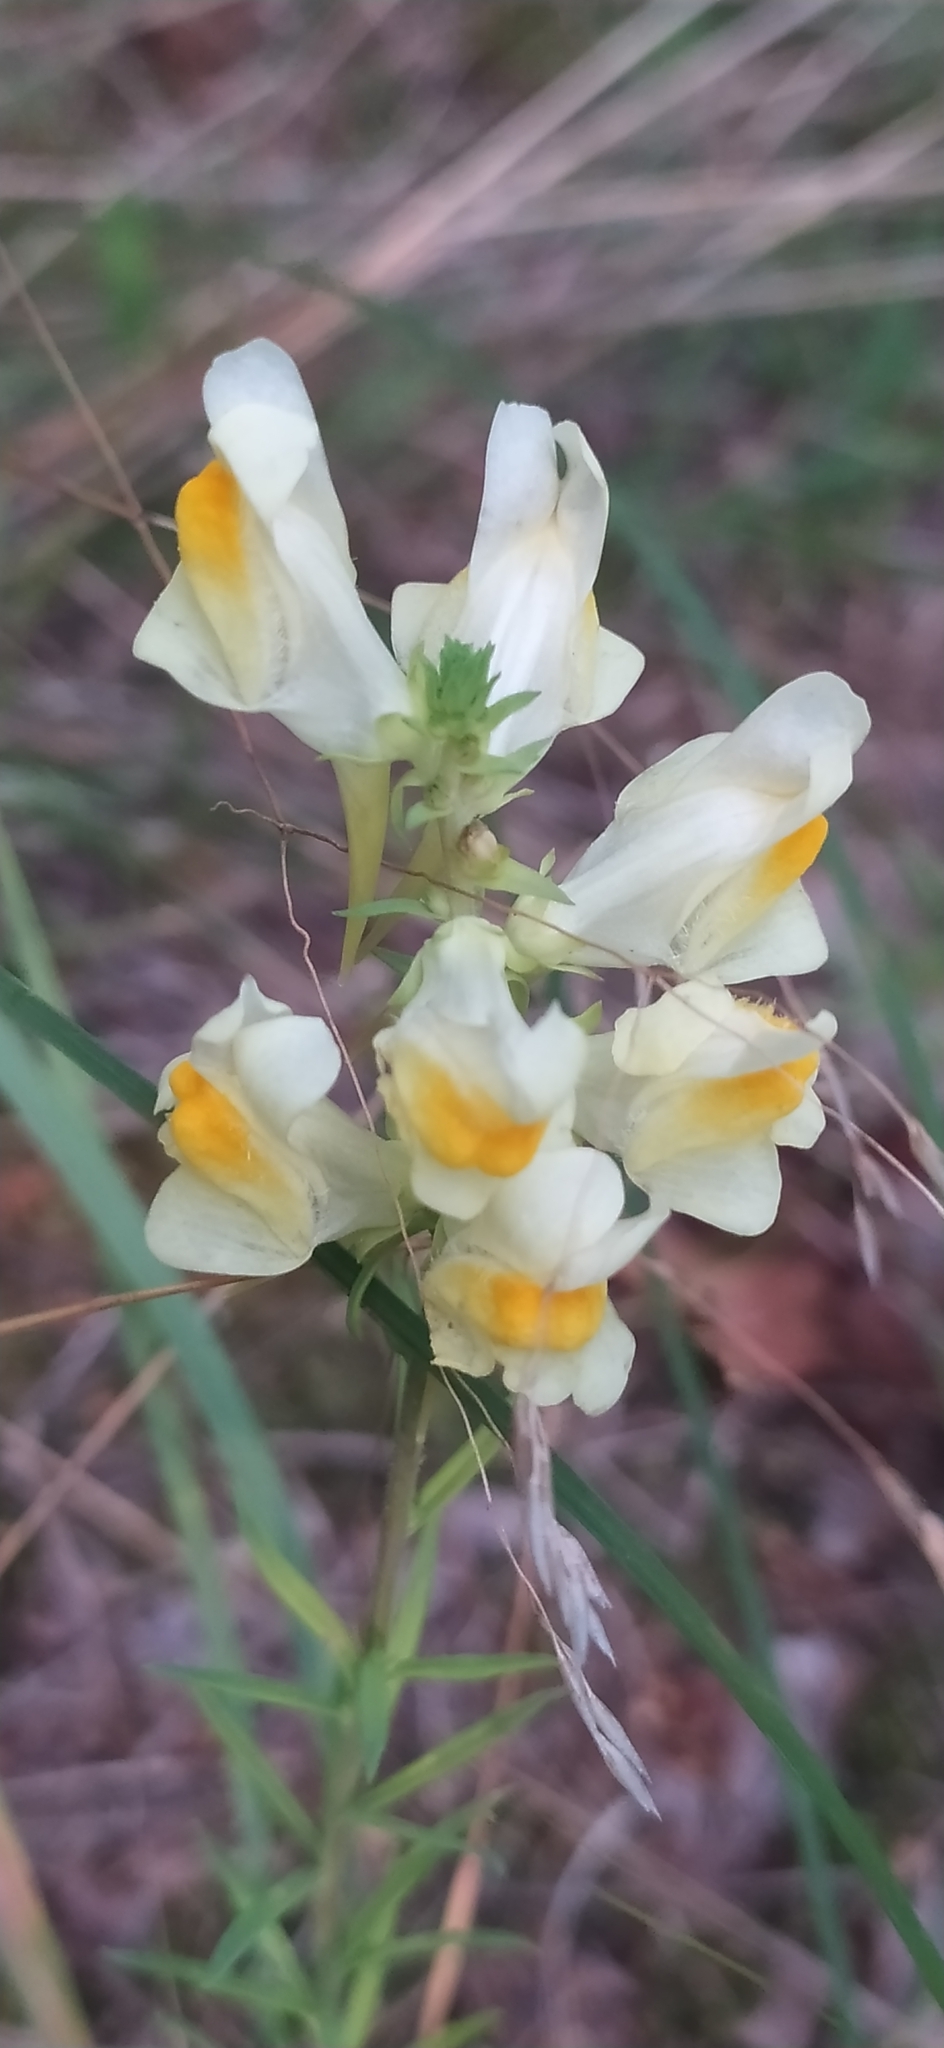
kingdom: Plantae
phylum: Tracheophyta
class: Magnoliopsida
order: Lamiales
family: Plantaginaceae
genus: Linaria
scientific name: Linaria vulgaris
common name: Butter and eggs
